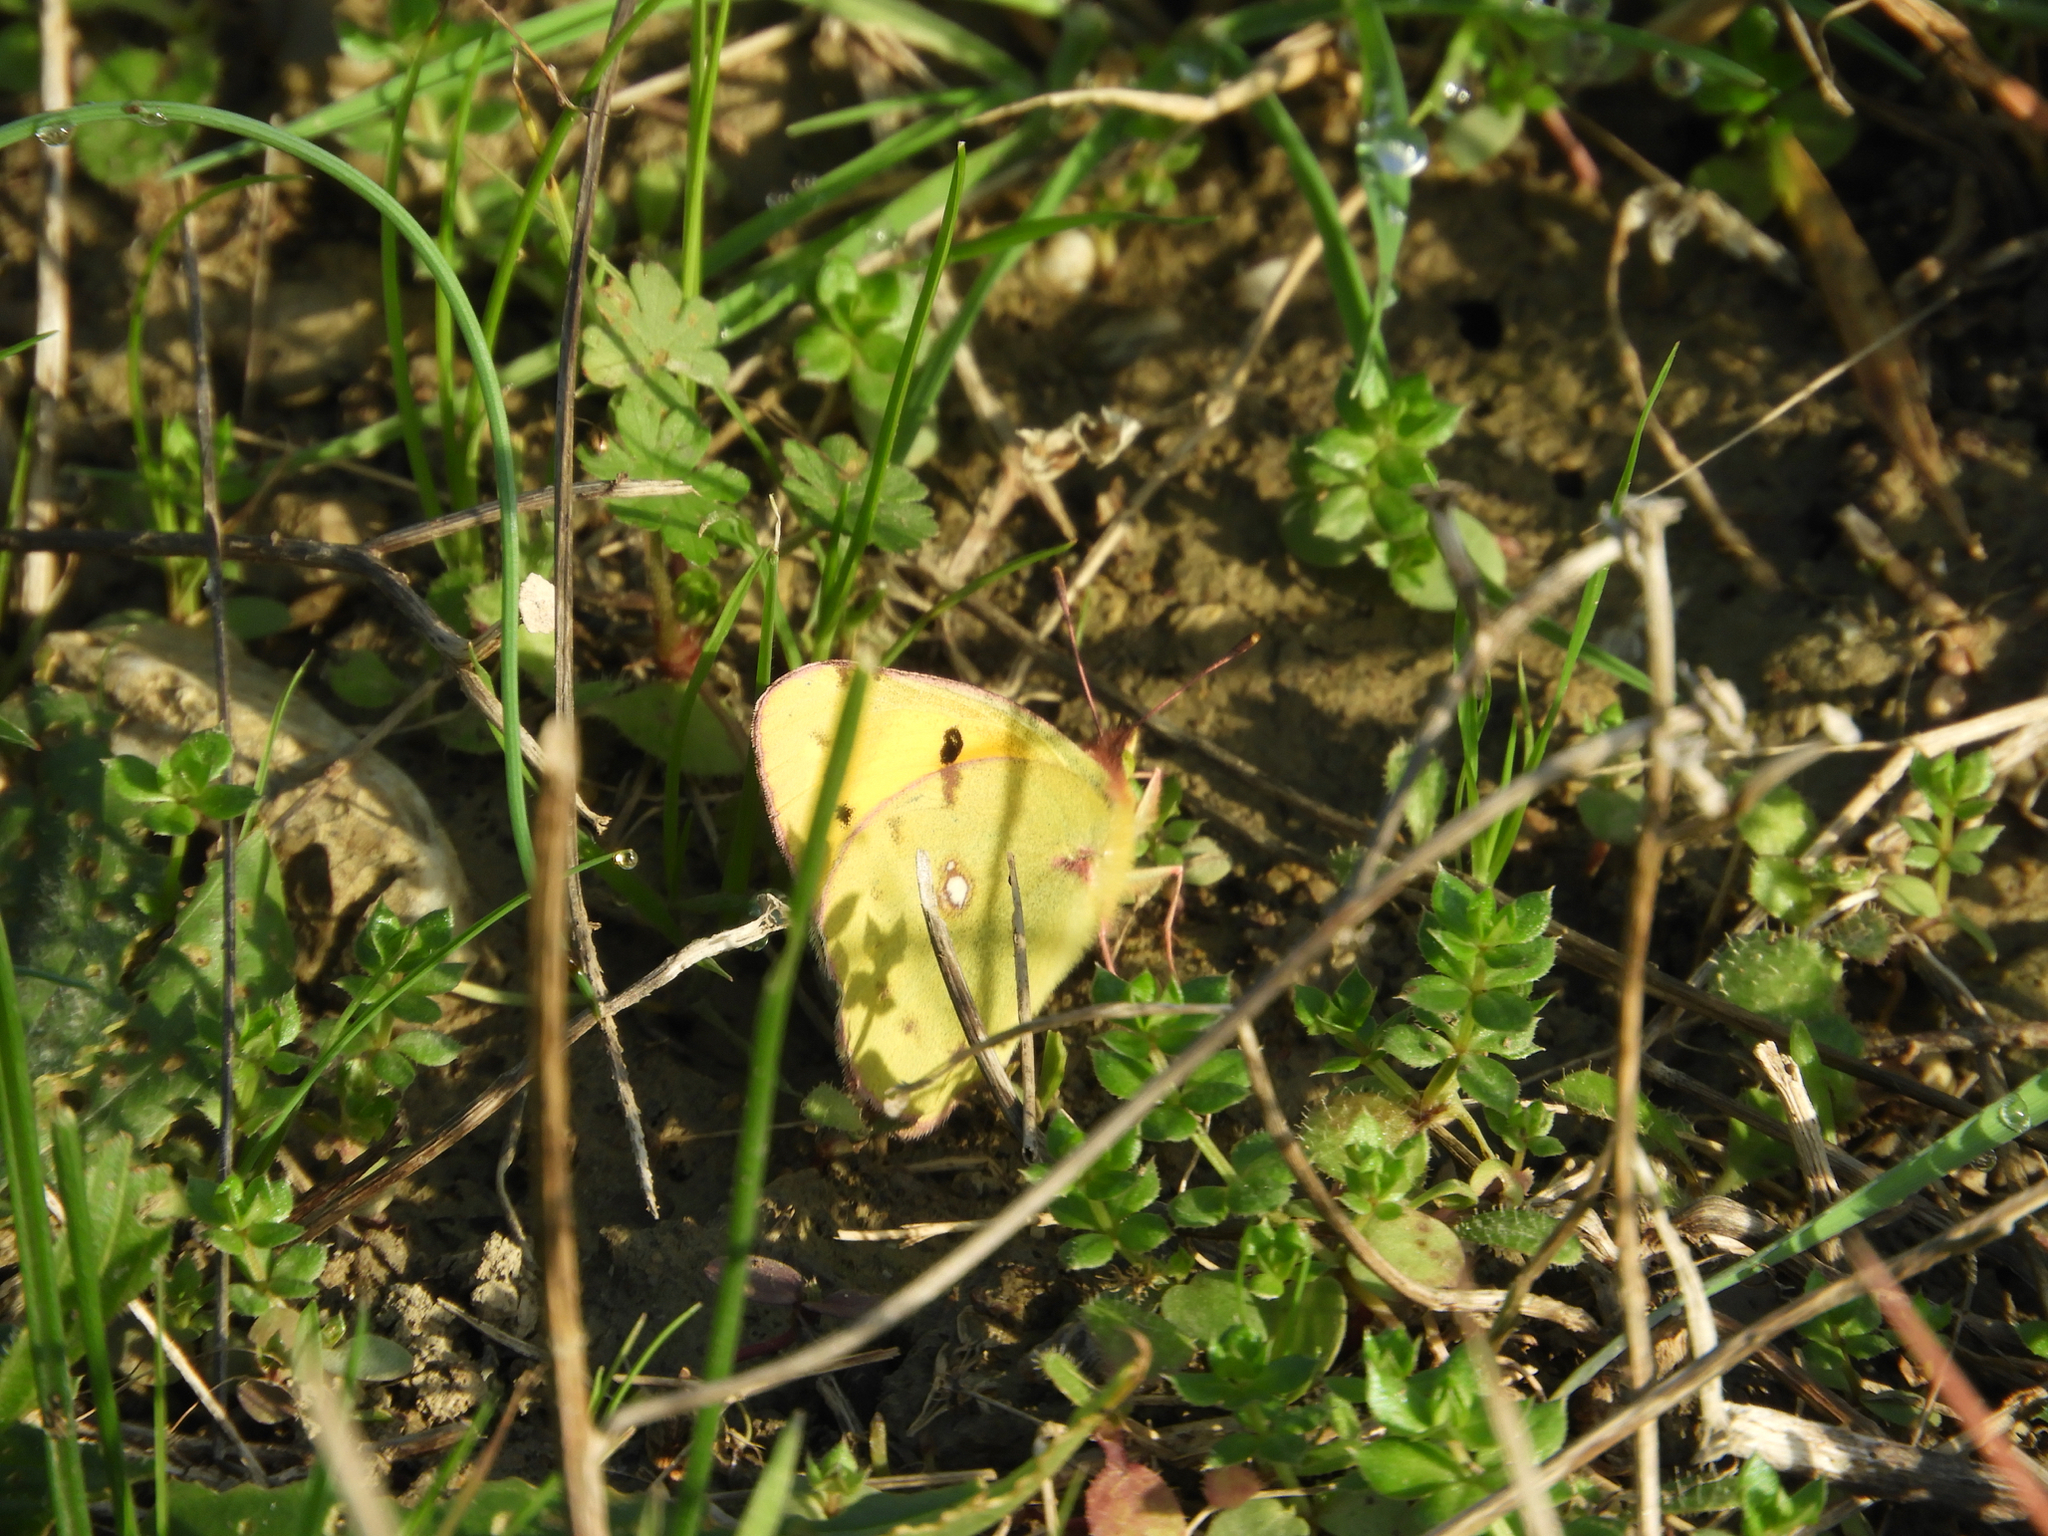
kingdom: Animalia
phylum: Arthropoda
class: Insecta
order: Lepidoptera
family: Pieridae
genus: Colias
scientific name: Colias croceus
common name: Clouded yellow
